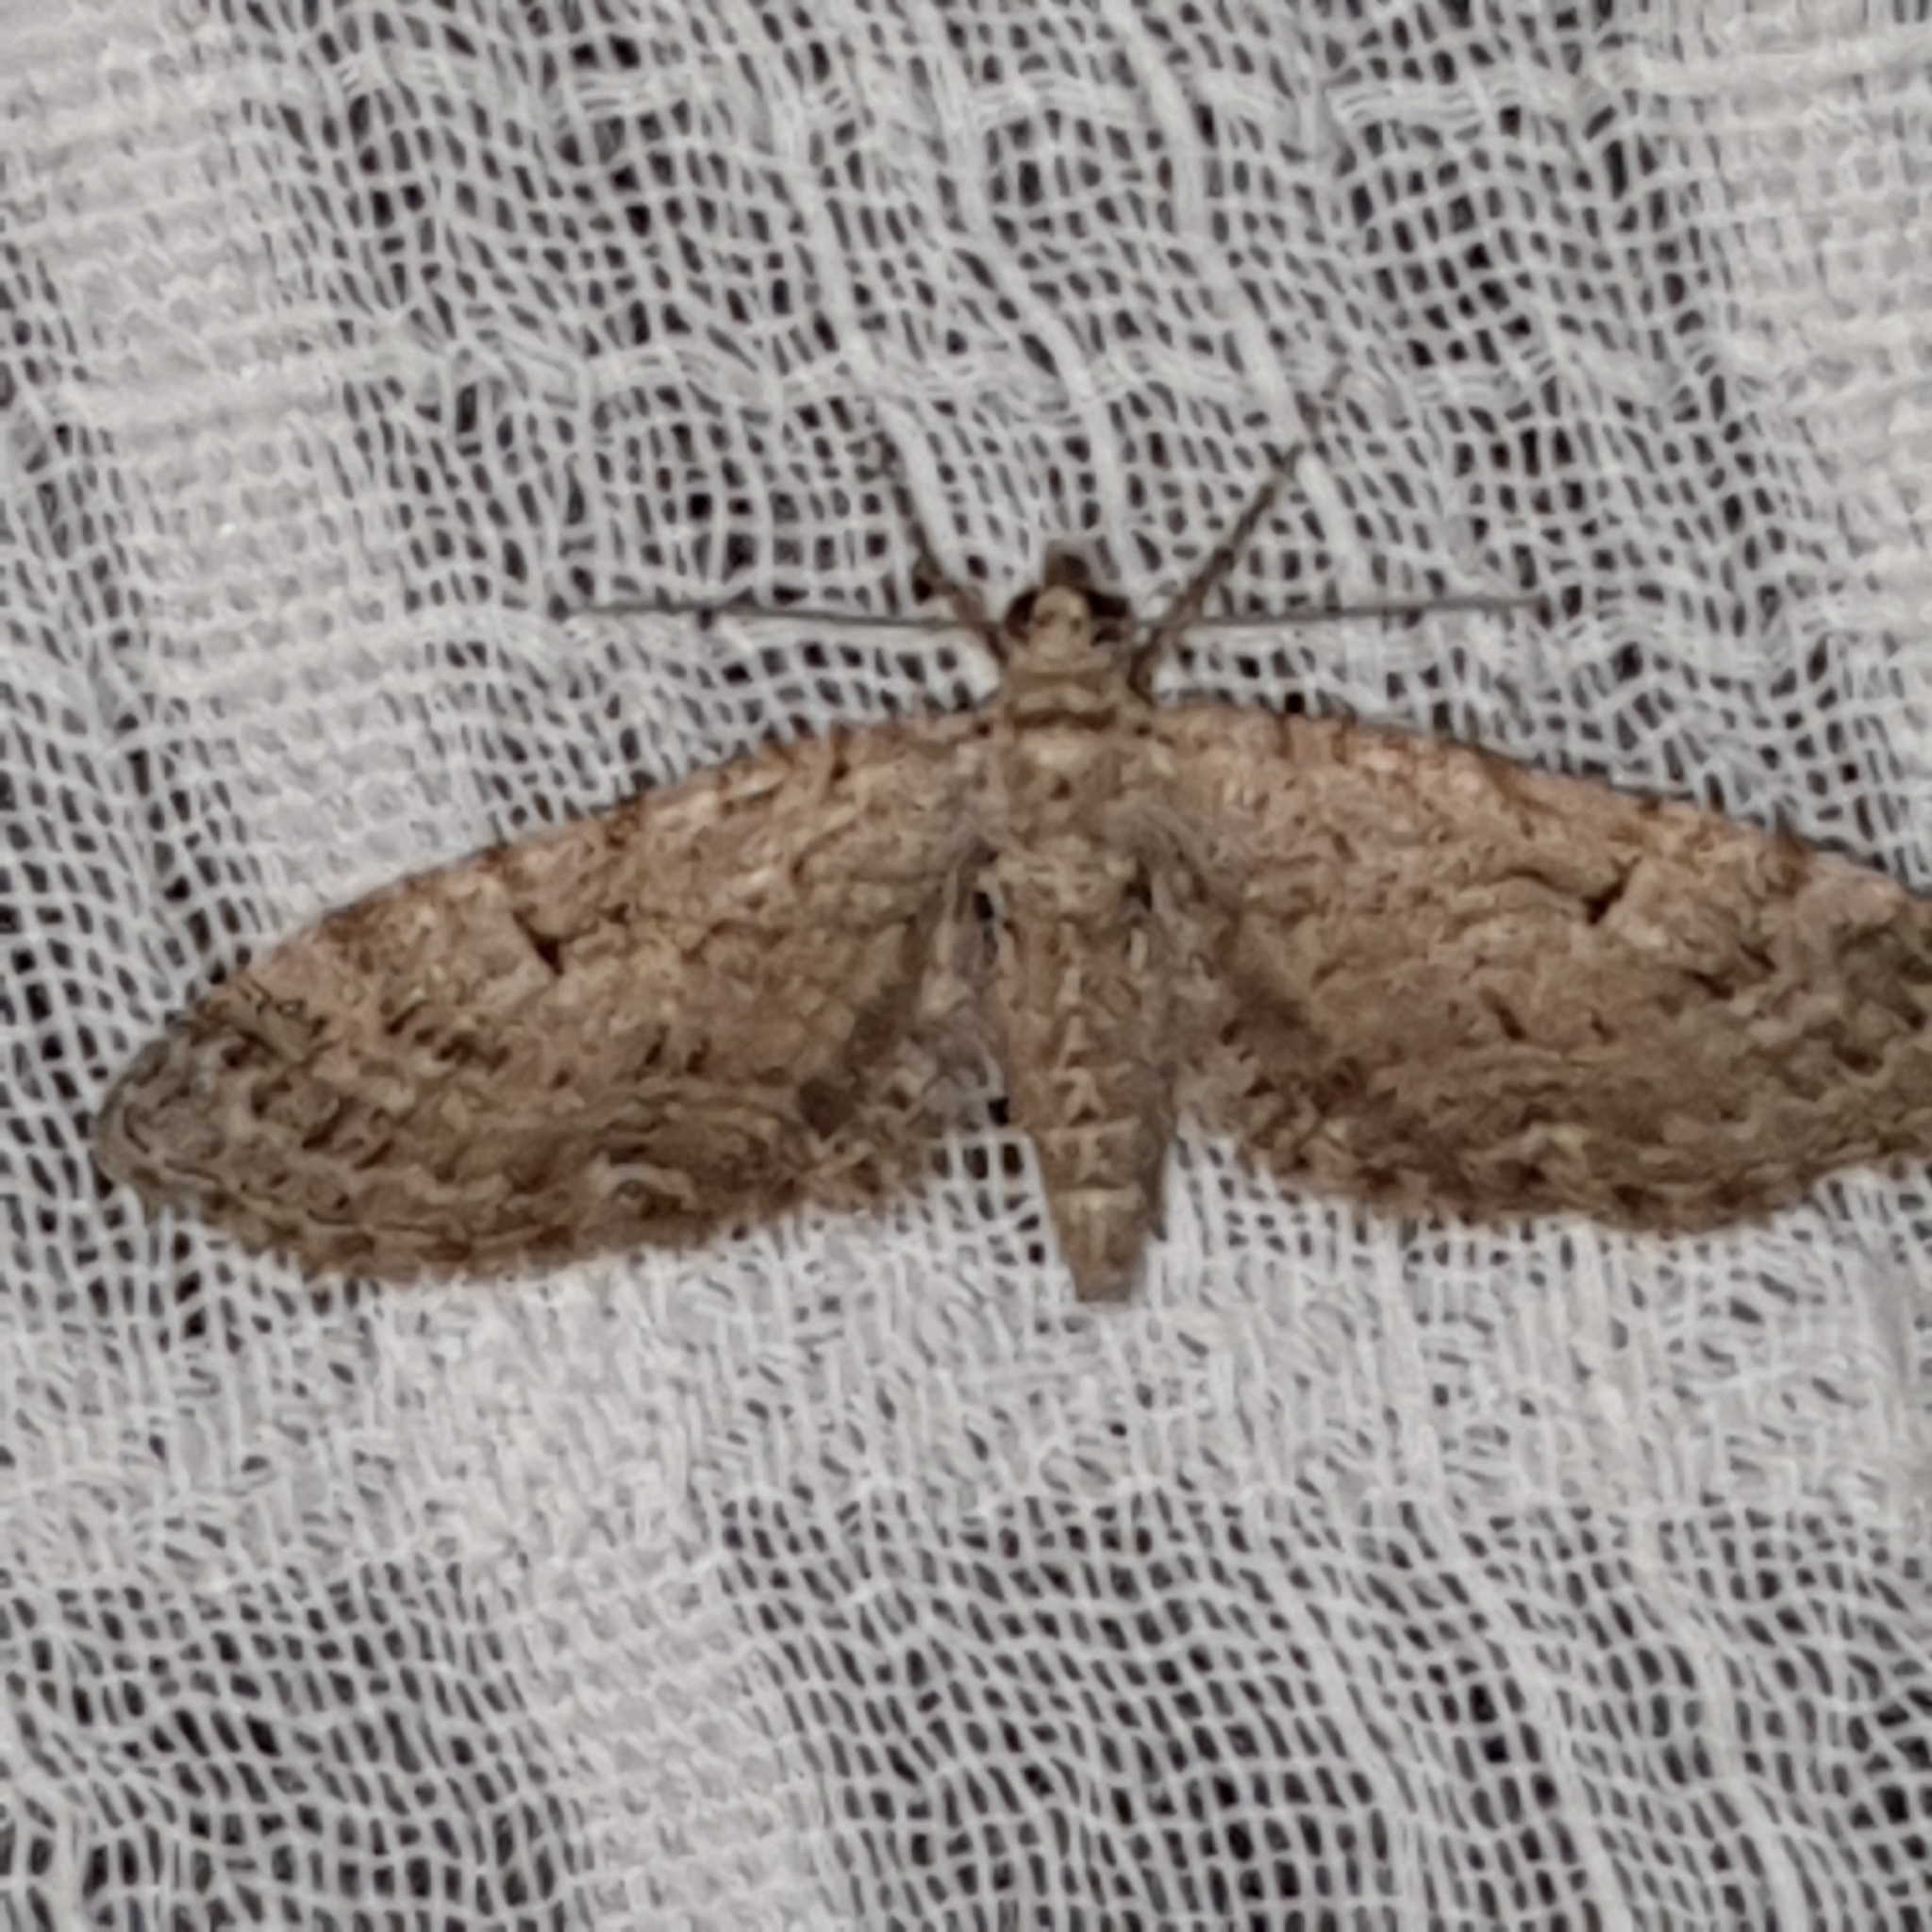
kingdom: Animalia
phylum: Arthropoda
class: Insecta
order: Lepidoptera
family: Geometridae
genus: Eupithecia
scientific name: Eupithecia pusillata
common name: Juniper pug
